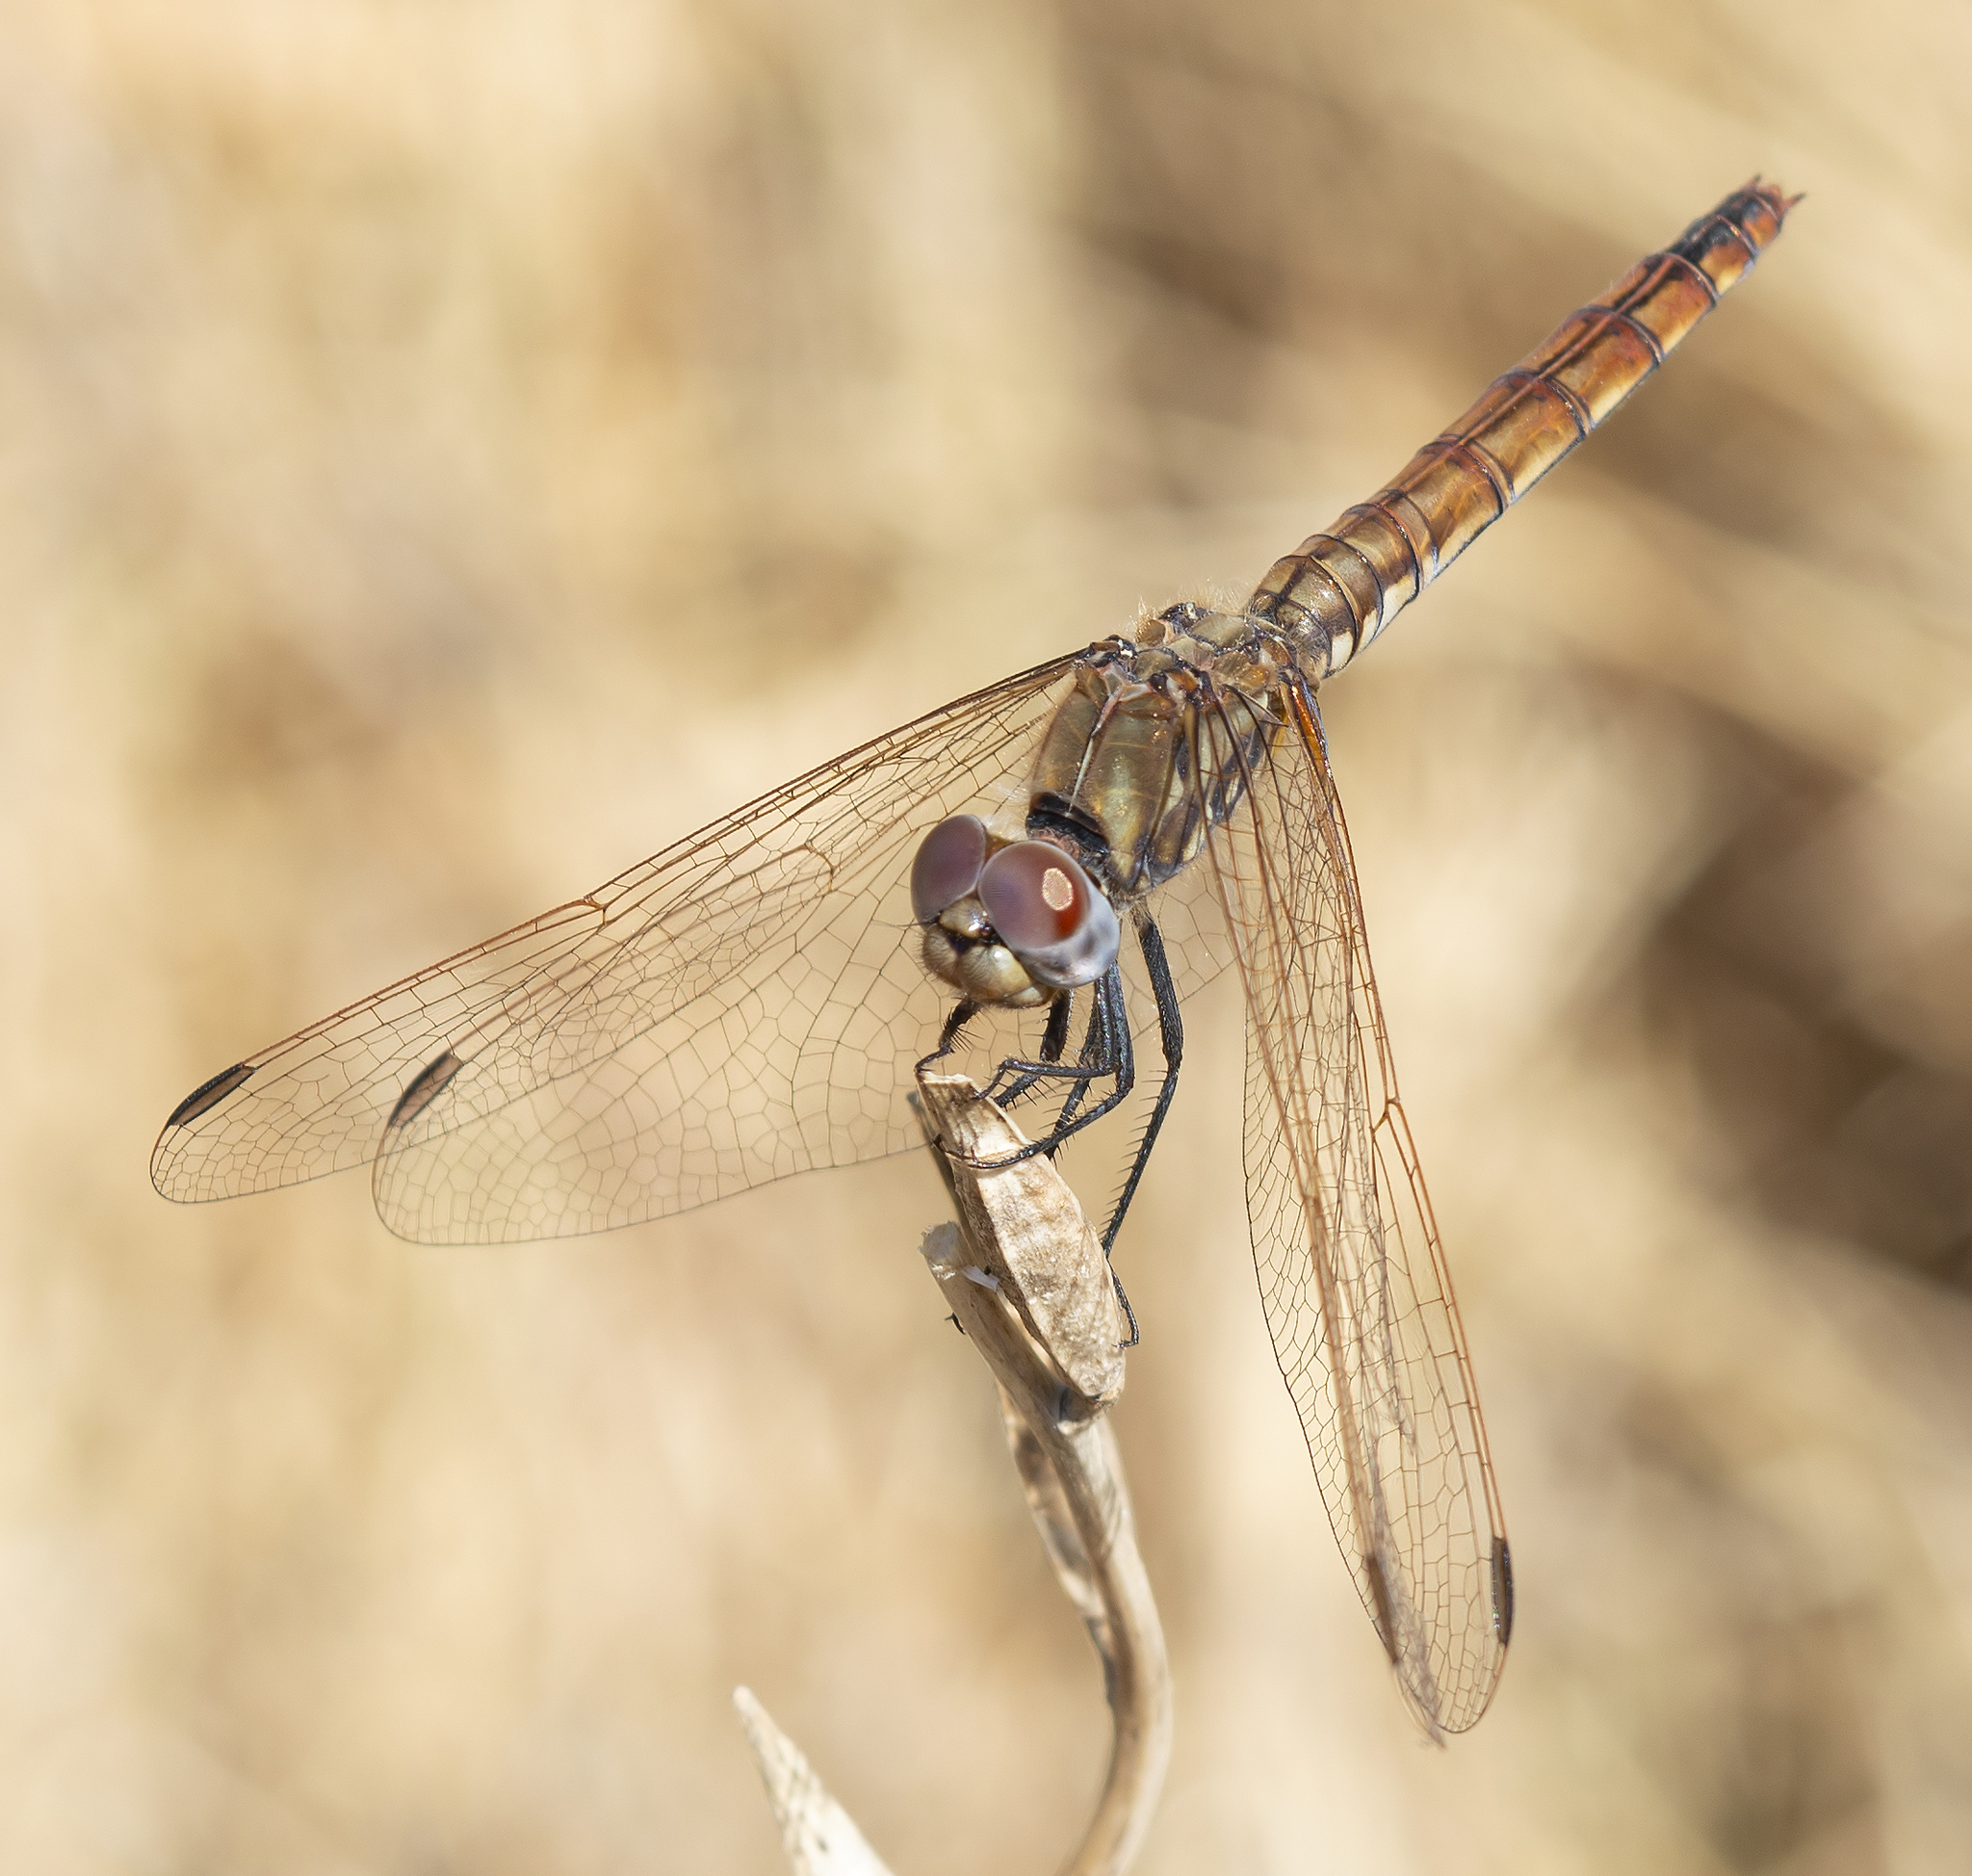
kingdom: Animalia
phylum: Arthropoda
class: Insecta
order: Odonata
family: Libellulidae
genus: Trithemis
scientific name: Trithemis annulata
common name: Violet dropwing
